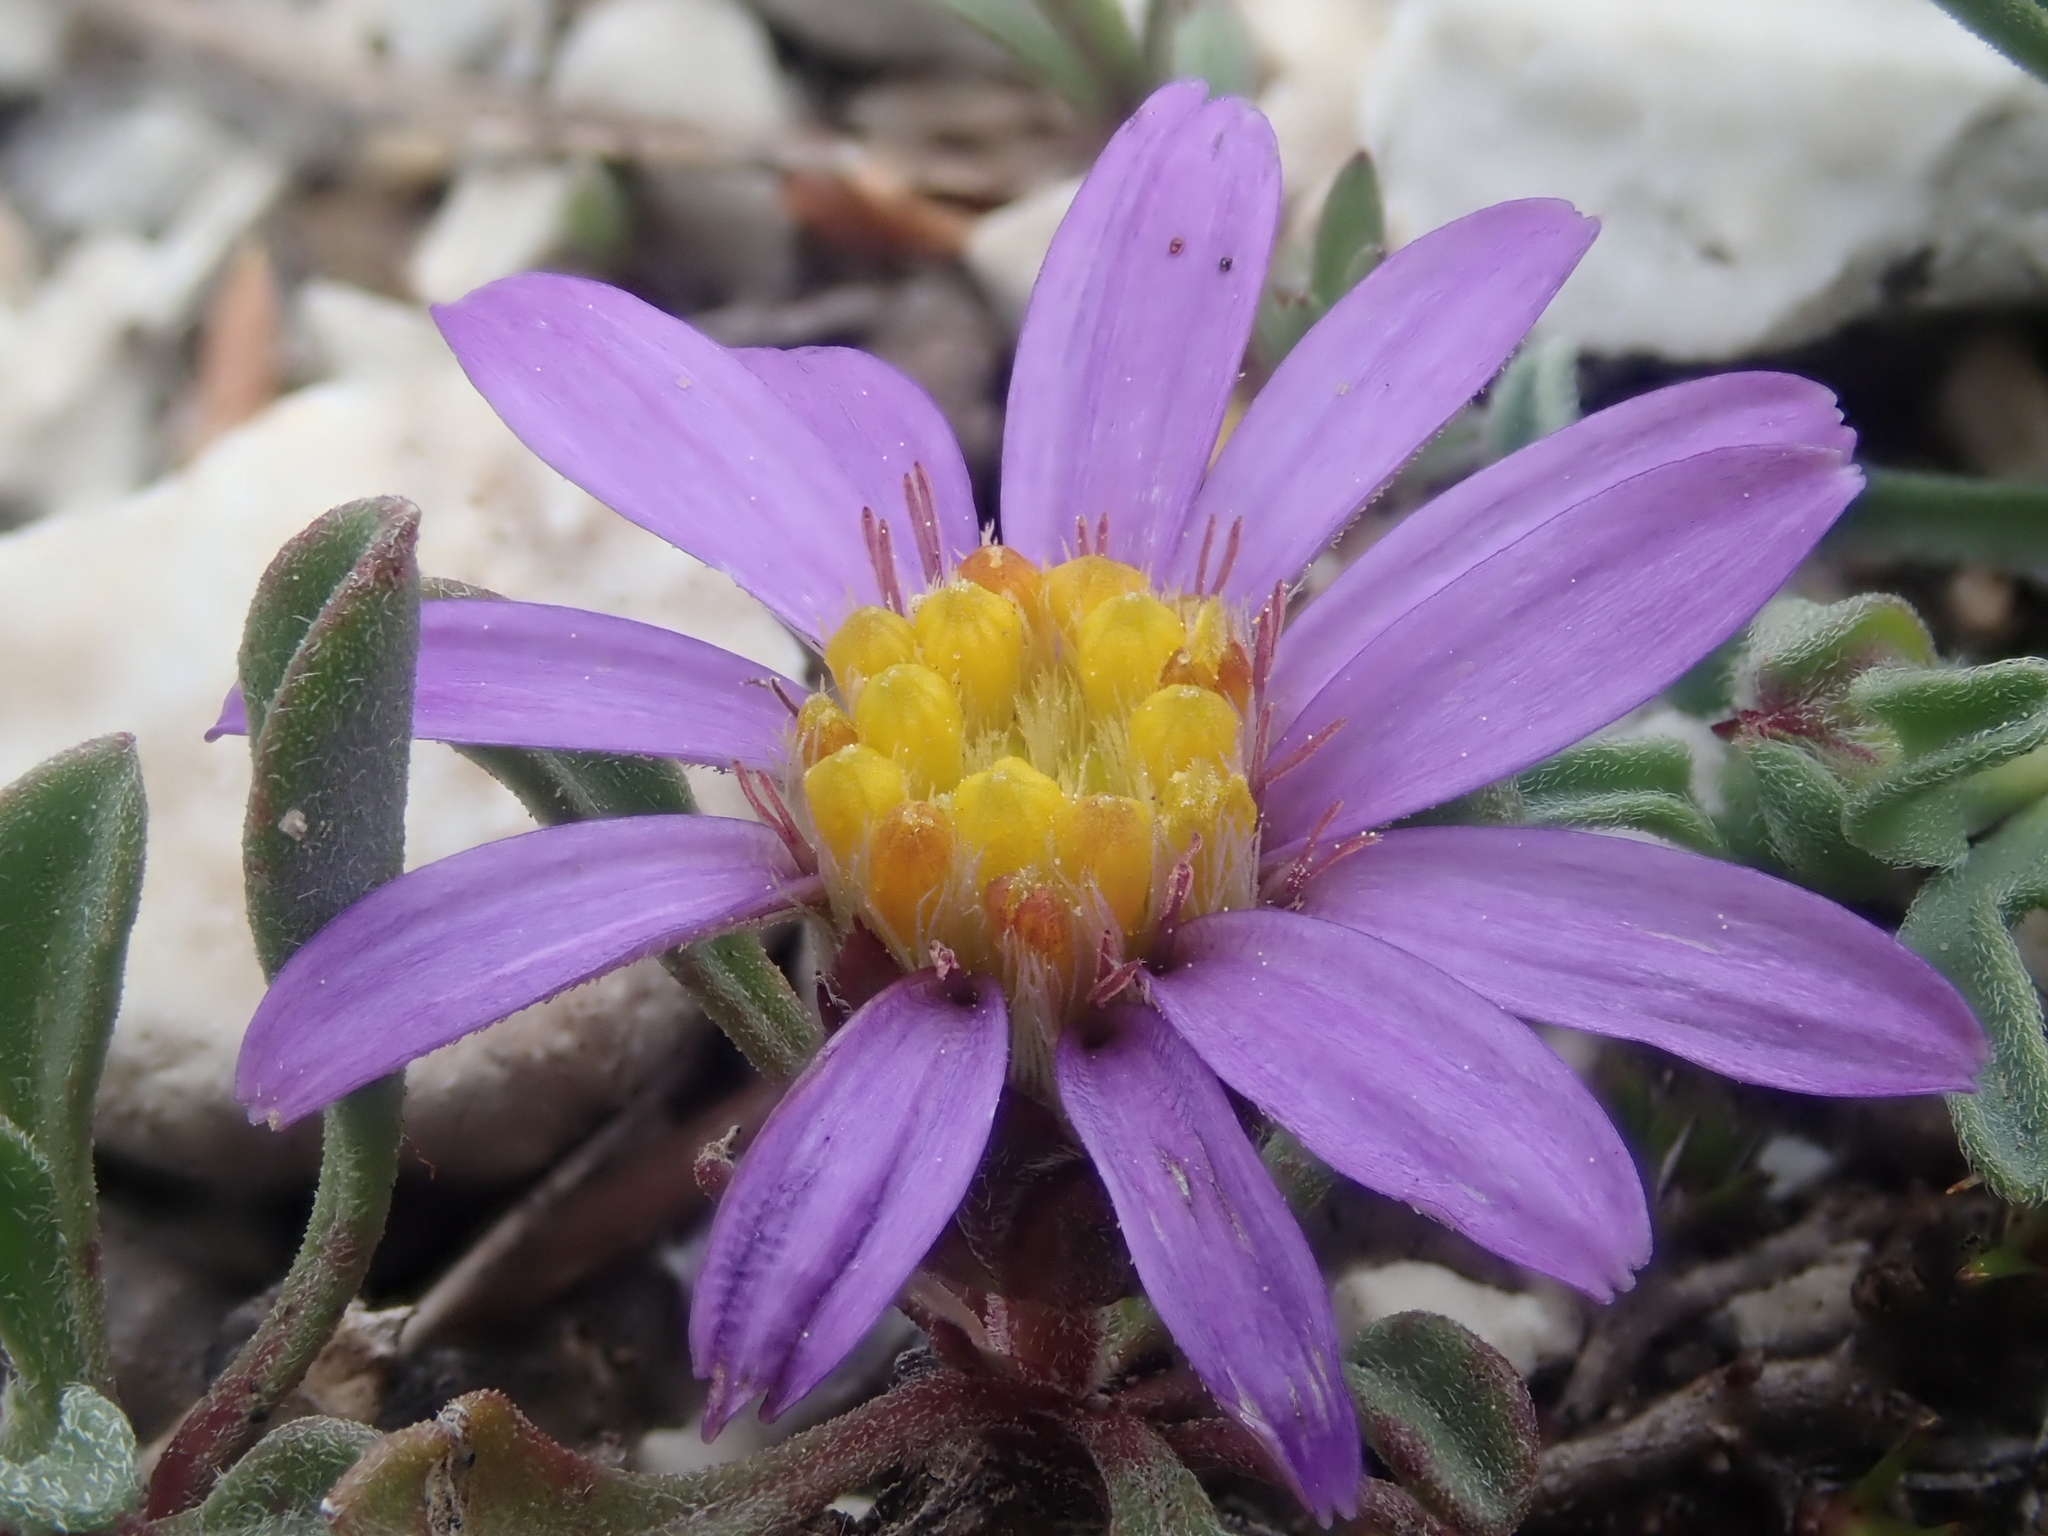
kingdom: Plantae
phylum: Tracheophyta
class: Magnoliopsida
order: Asterales
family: Asteraceae
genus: Townsendia
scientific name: Townsendia montana
